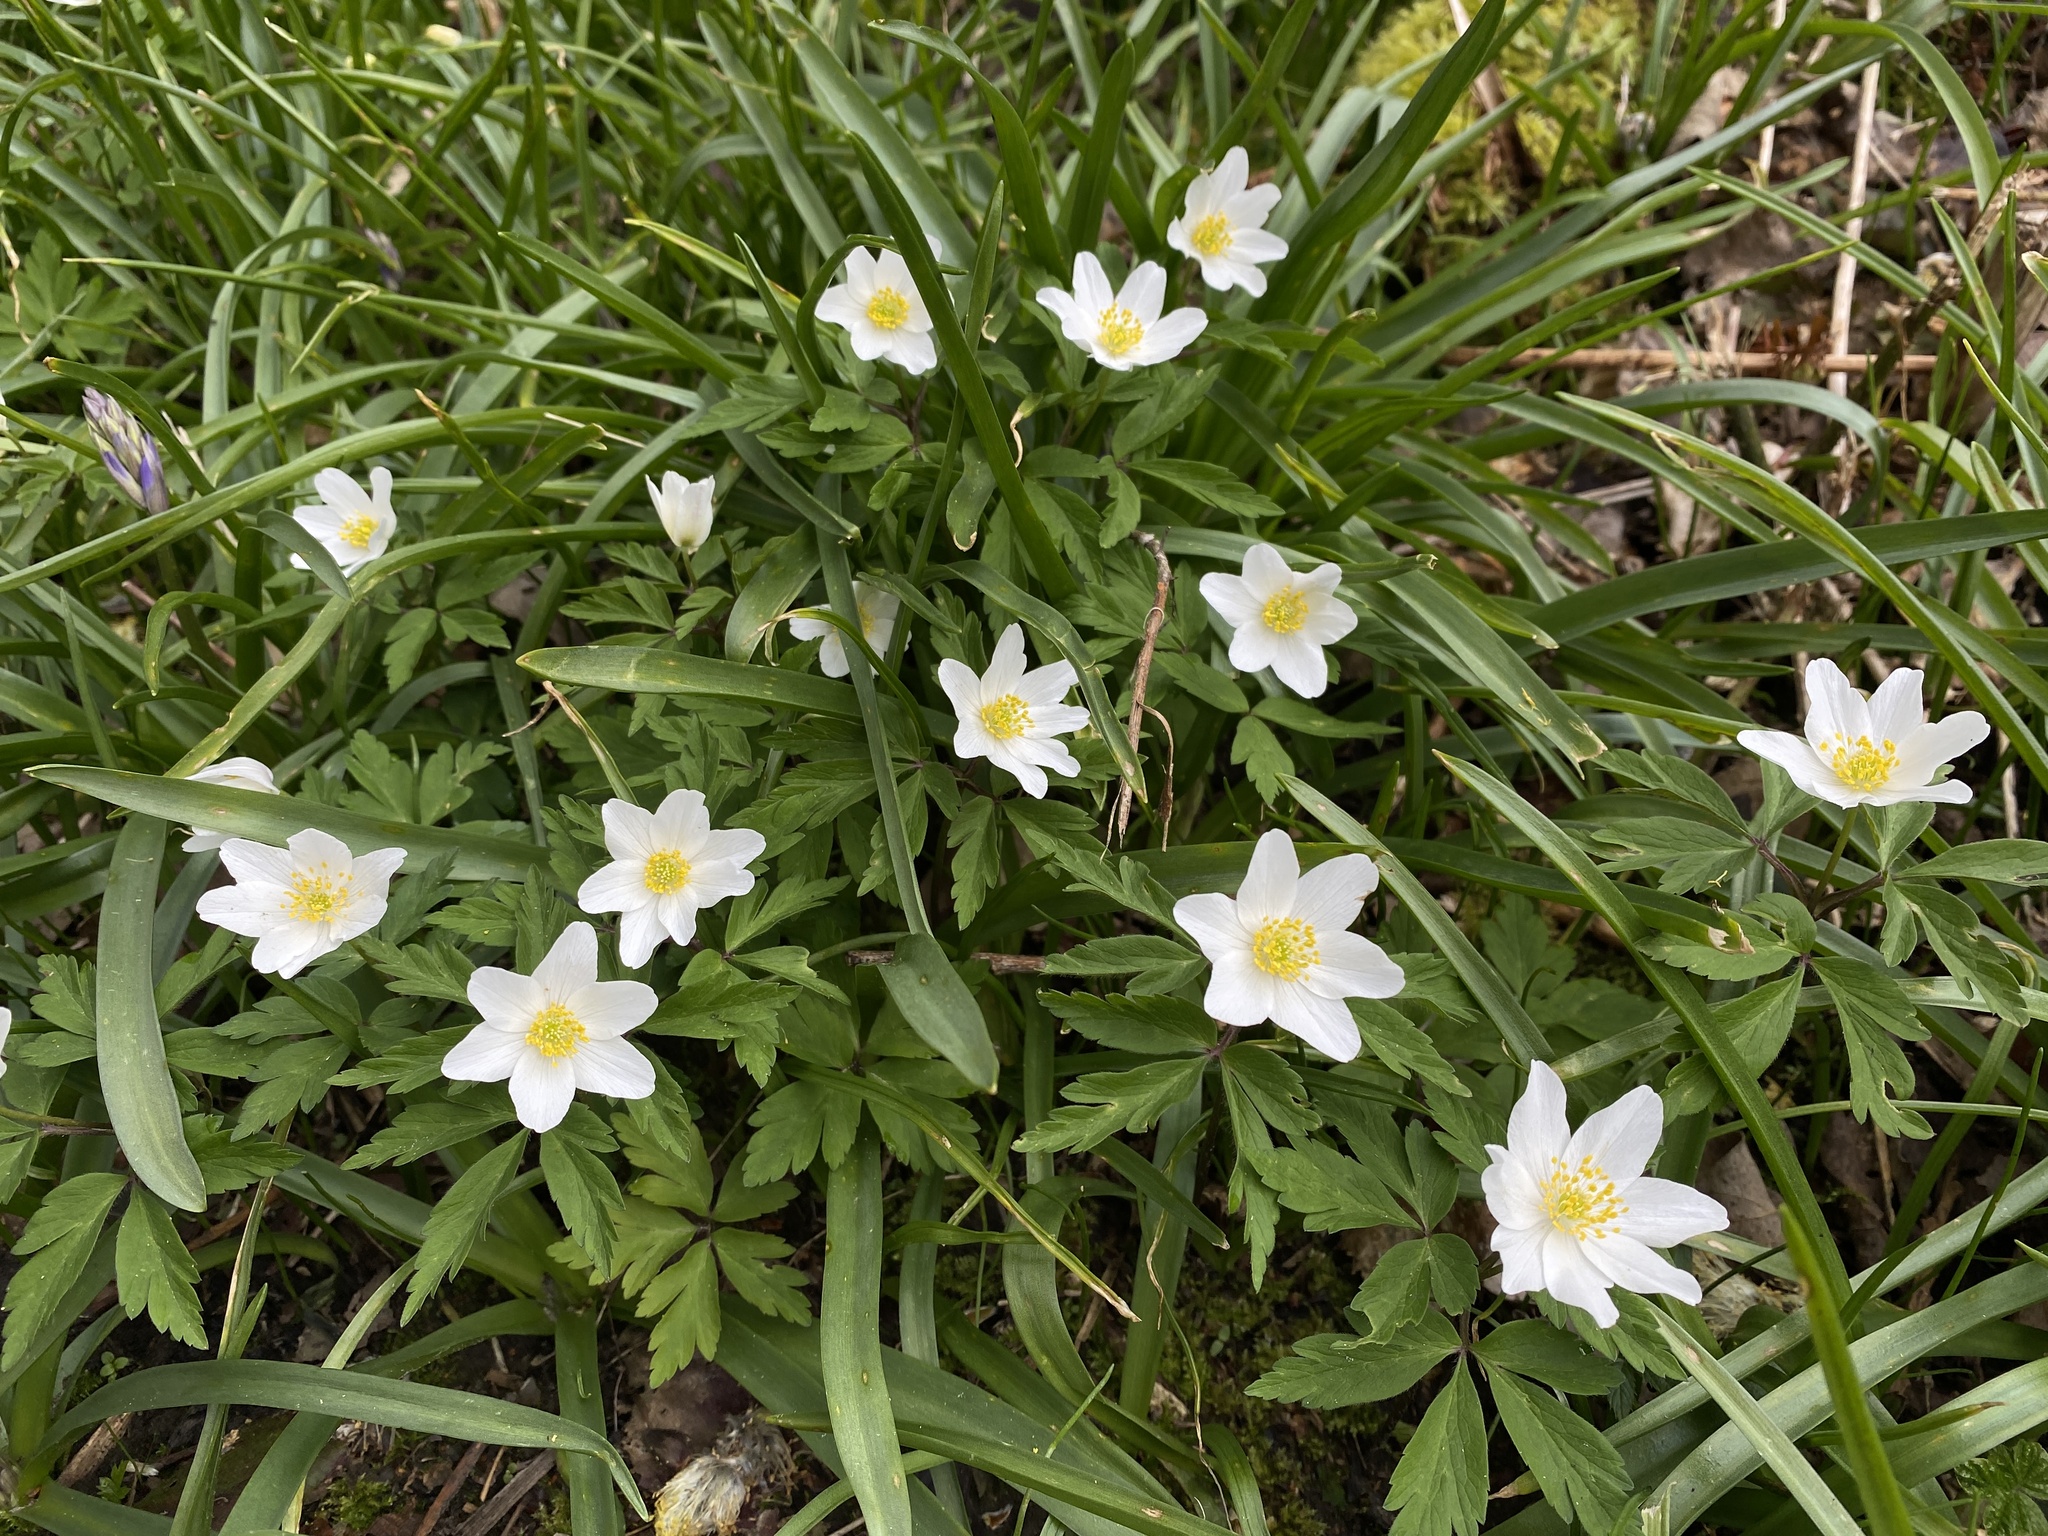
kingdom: Plantae
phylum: Tracheophyta
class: Magnoliopsida
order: Ranunculales
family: Ranunculaceae
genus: Anemone
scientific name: Anemone nemorosa
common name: Wood anemone
